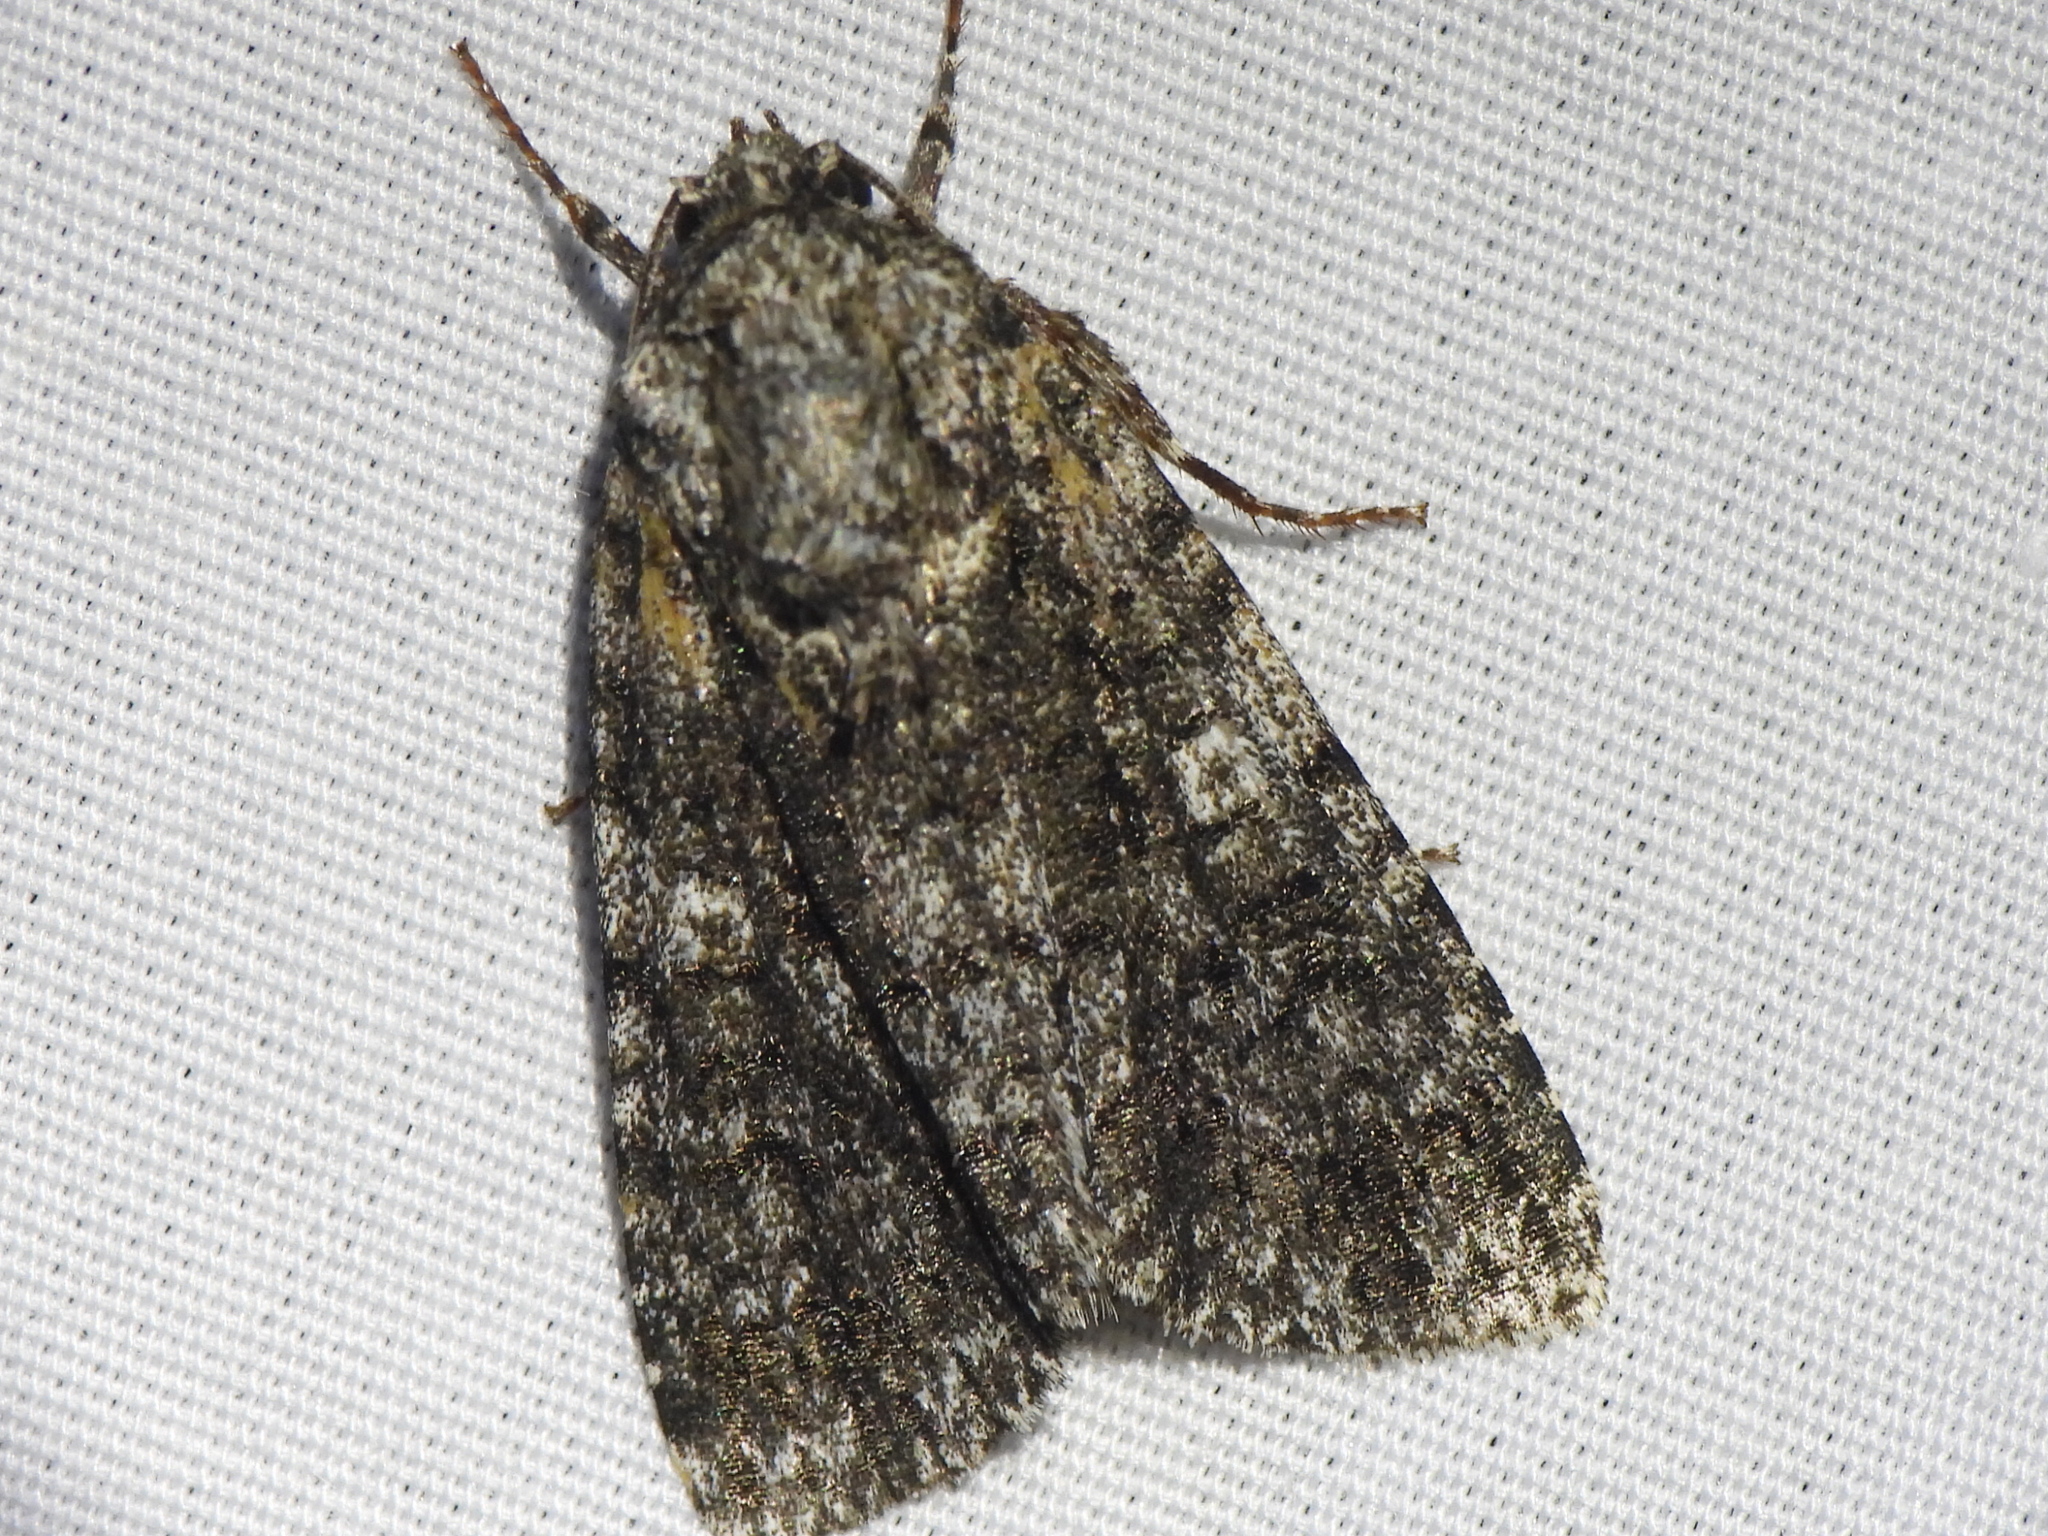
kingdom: Animalia
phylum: Arthropoda
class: Insecta
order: Lepidoptera
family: Noctuidae
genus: Acronicta
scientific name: Acronicta afflicta
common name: Afflicted dagger moth
